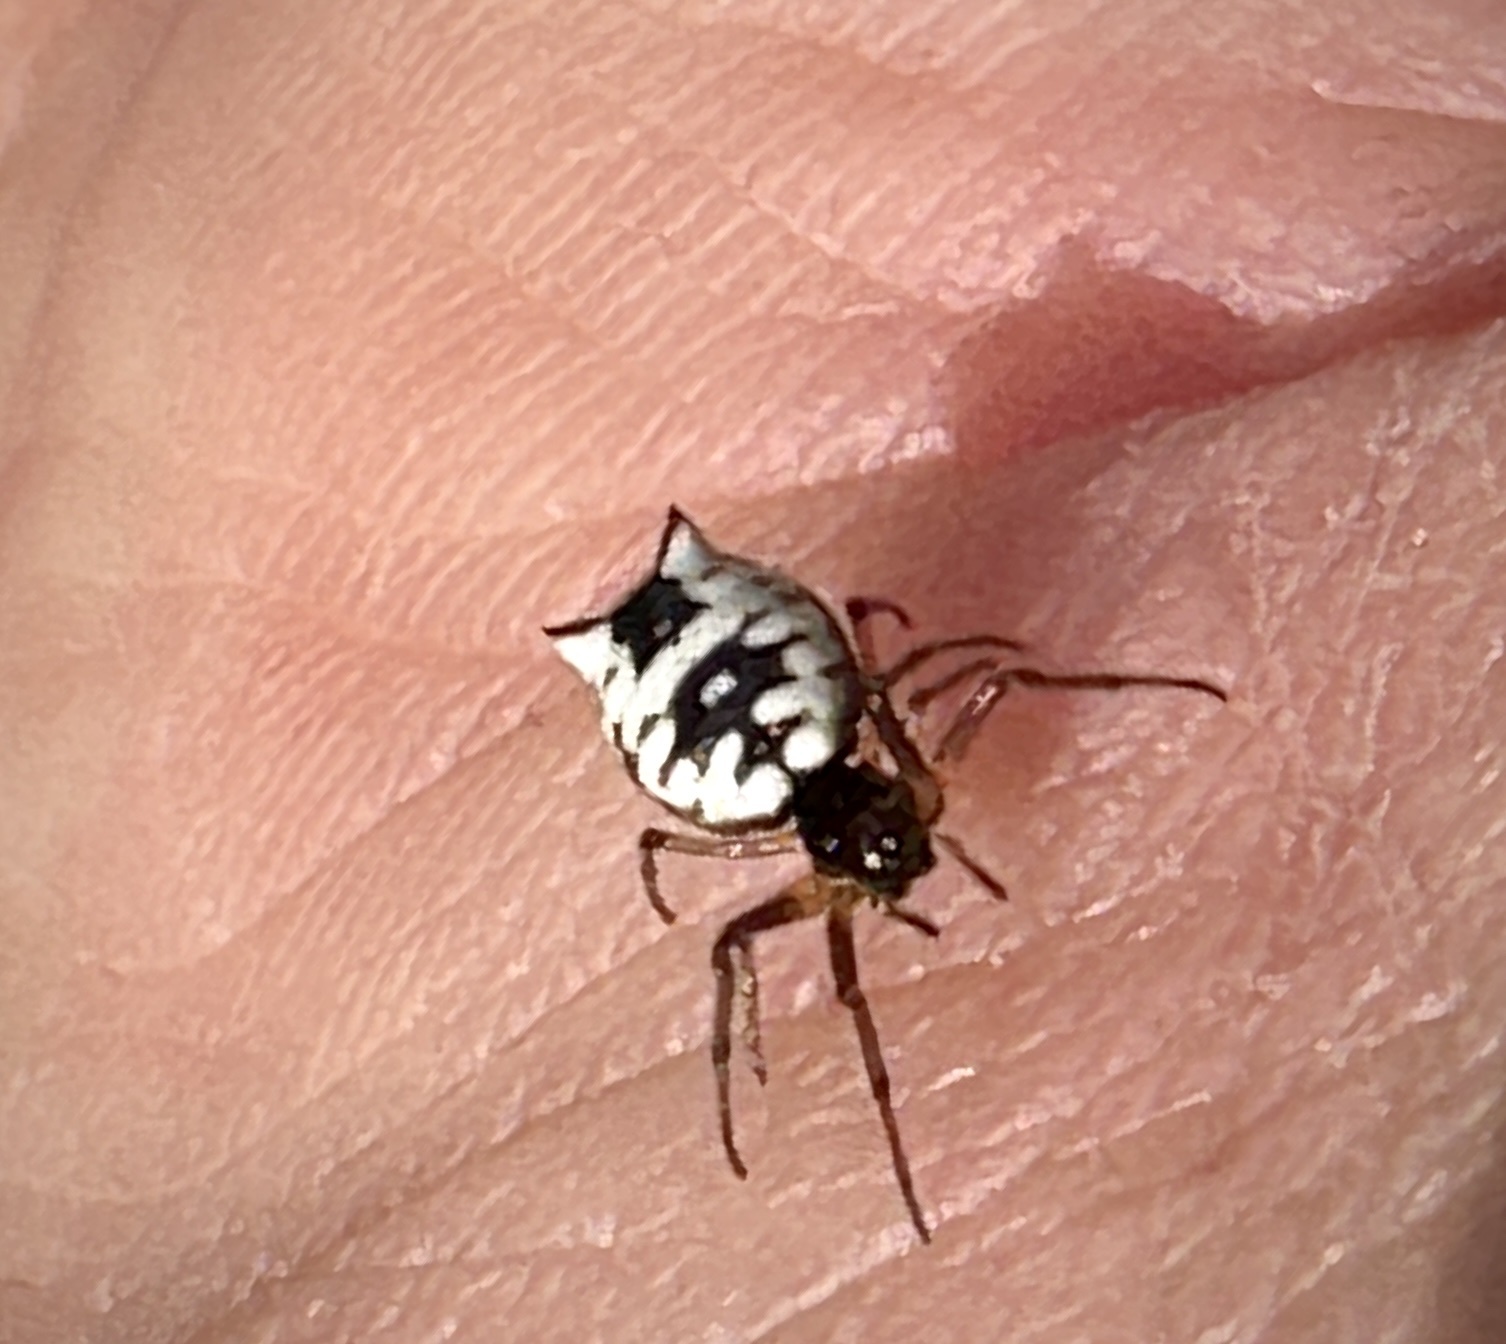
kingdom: Animalia
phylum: Arthropoda
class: Arachnida
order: Araneae
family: Araneidae
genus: Micrathena
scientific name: Micrathena mitrata
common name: Orb weavers
